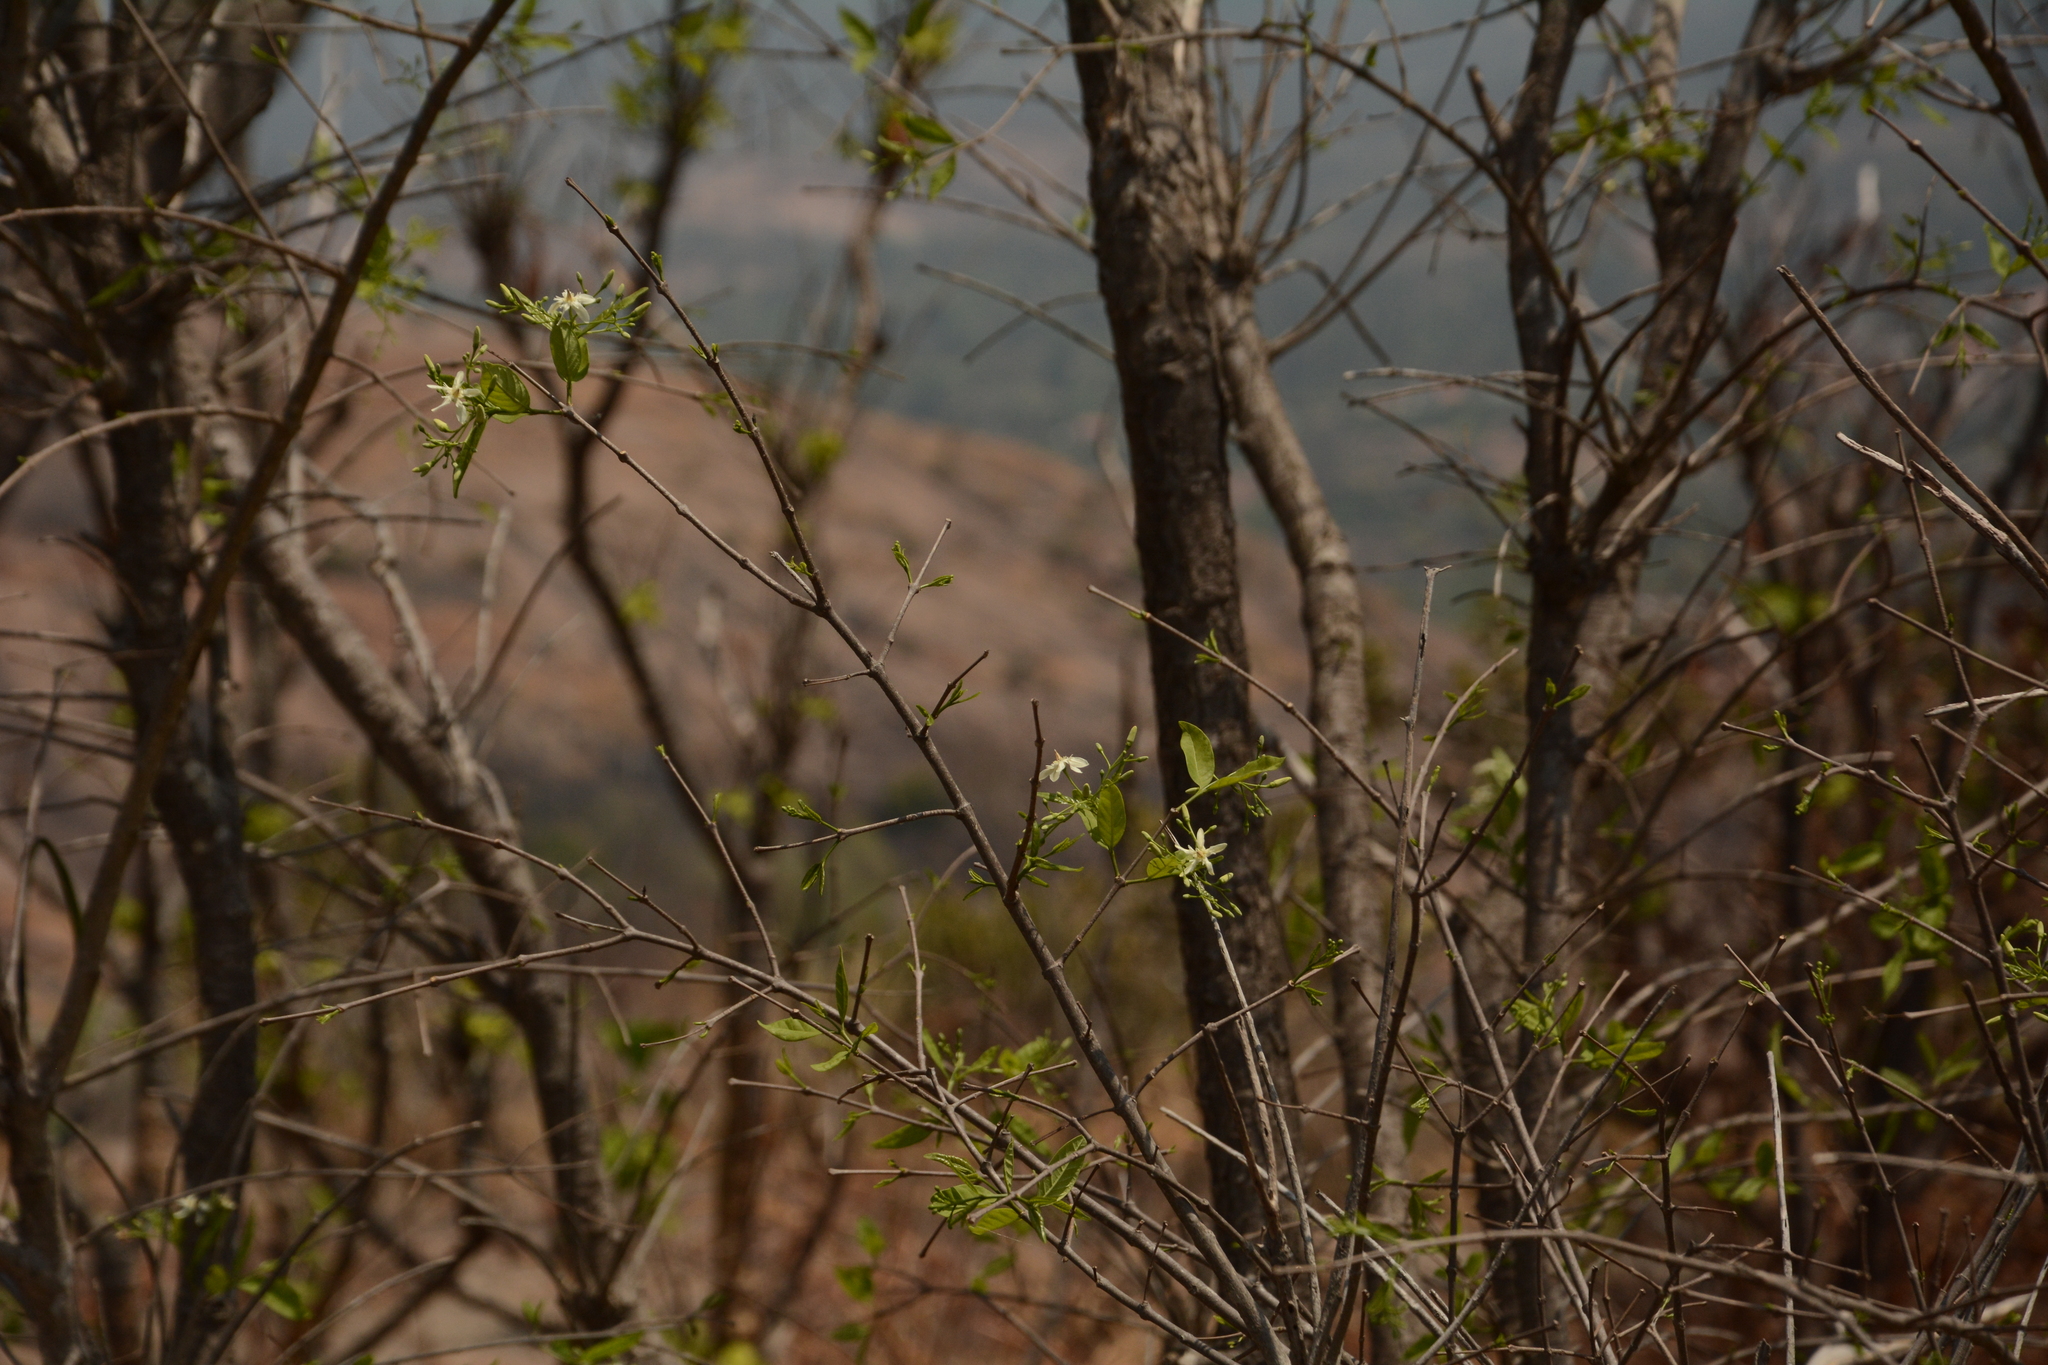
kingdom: Plantae
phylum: Tracheophyta
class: Magnoliopsida
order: Gentianales
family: Apocynaceae
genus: Wrightia
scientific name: Wrightia tinctoria
